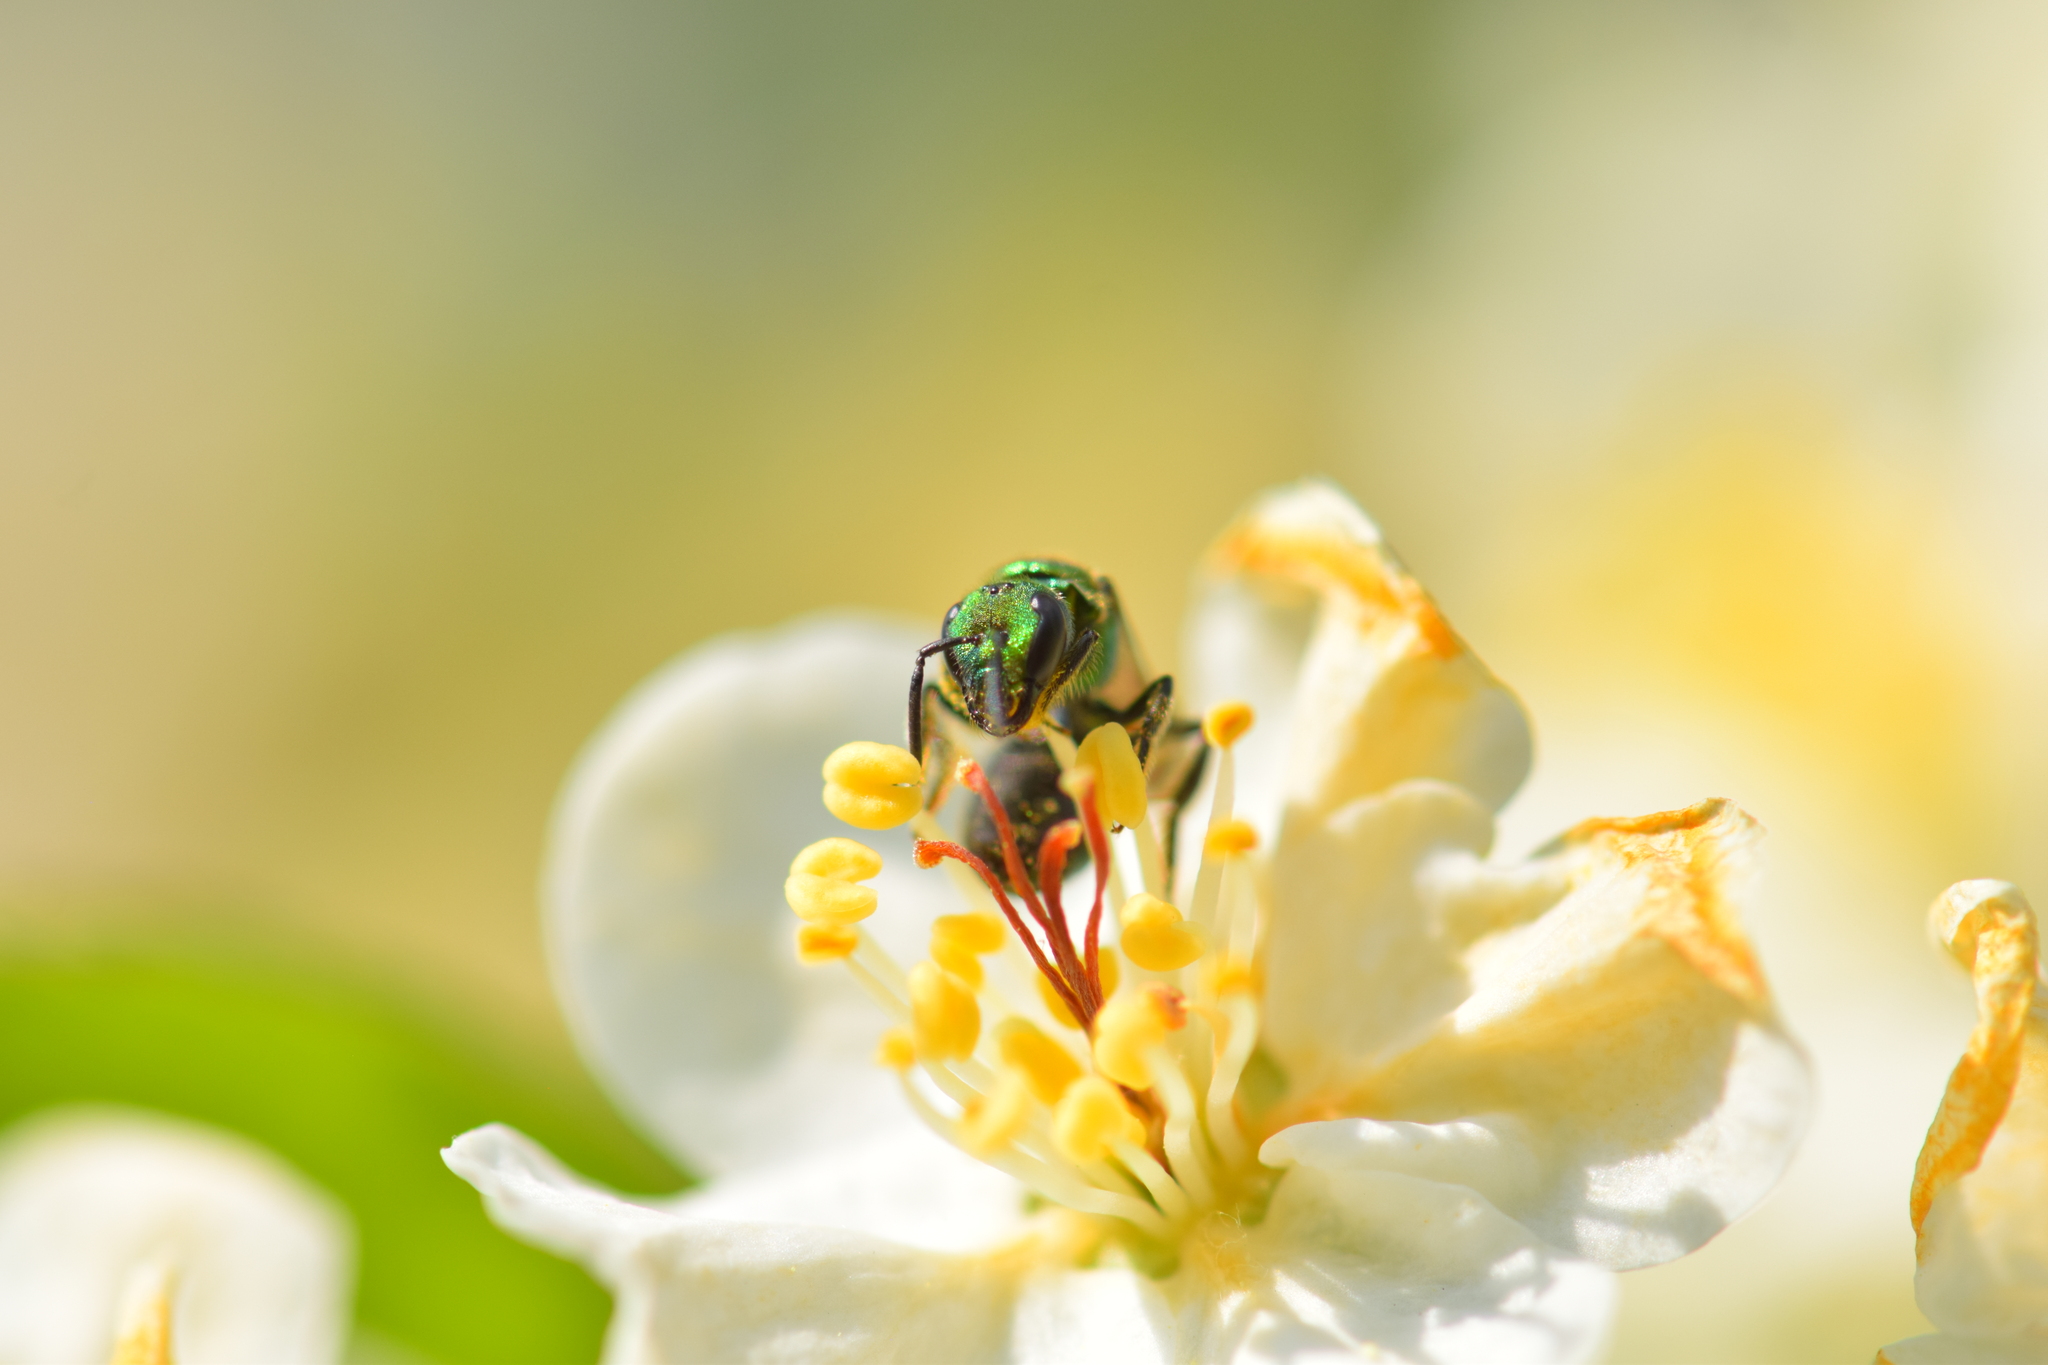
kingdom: Animalia
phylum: Arthropoda
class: Insecta
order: Hymenoptera
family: Halictidae
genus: Augochlora
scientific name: Augochlora pura
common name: Pure green sweat bee
